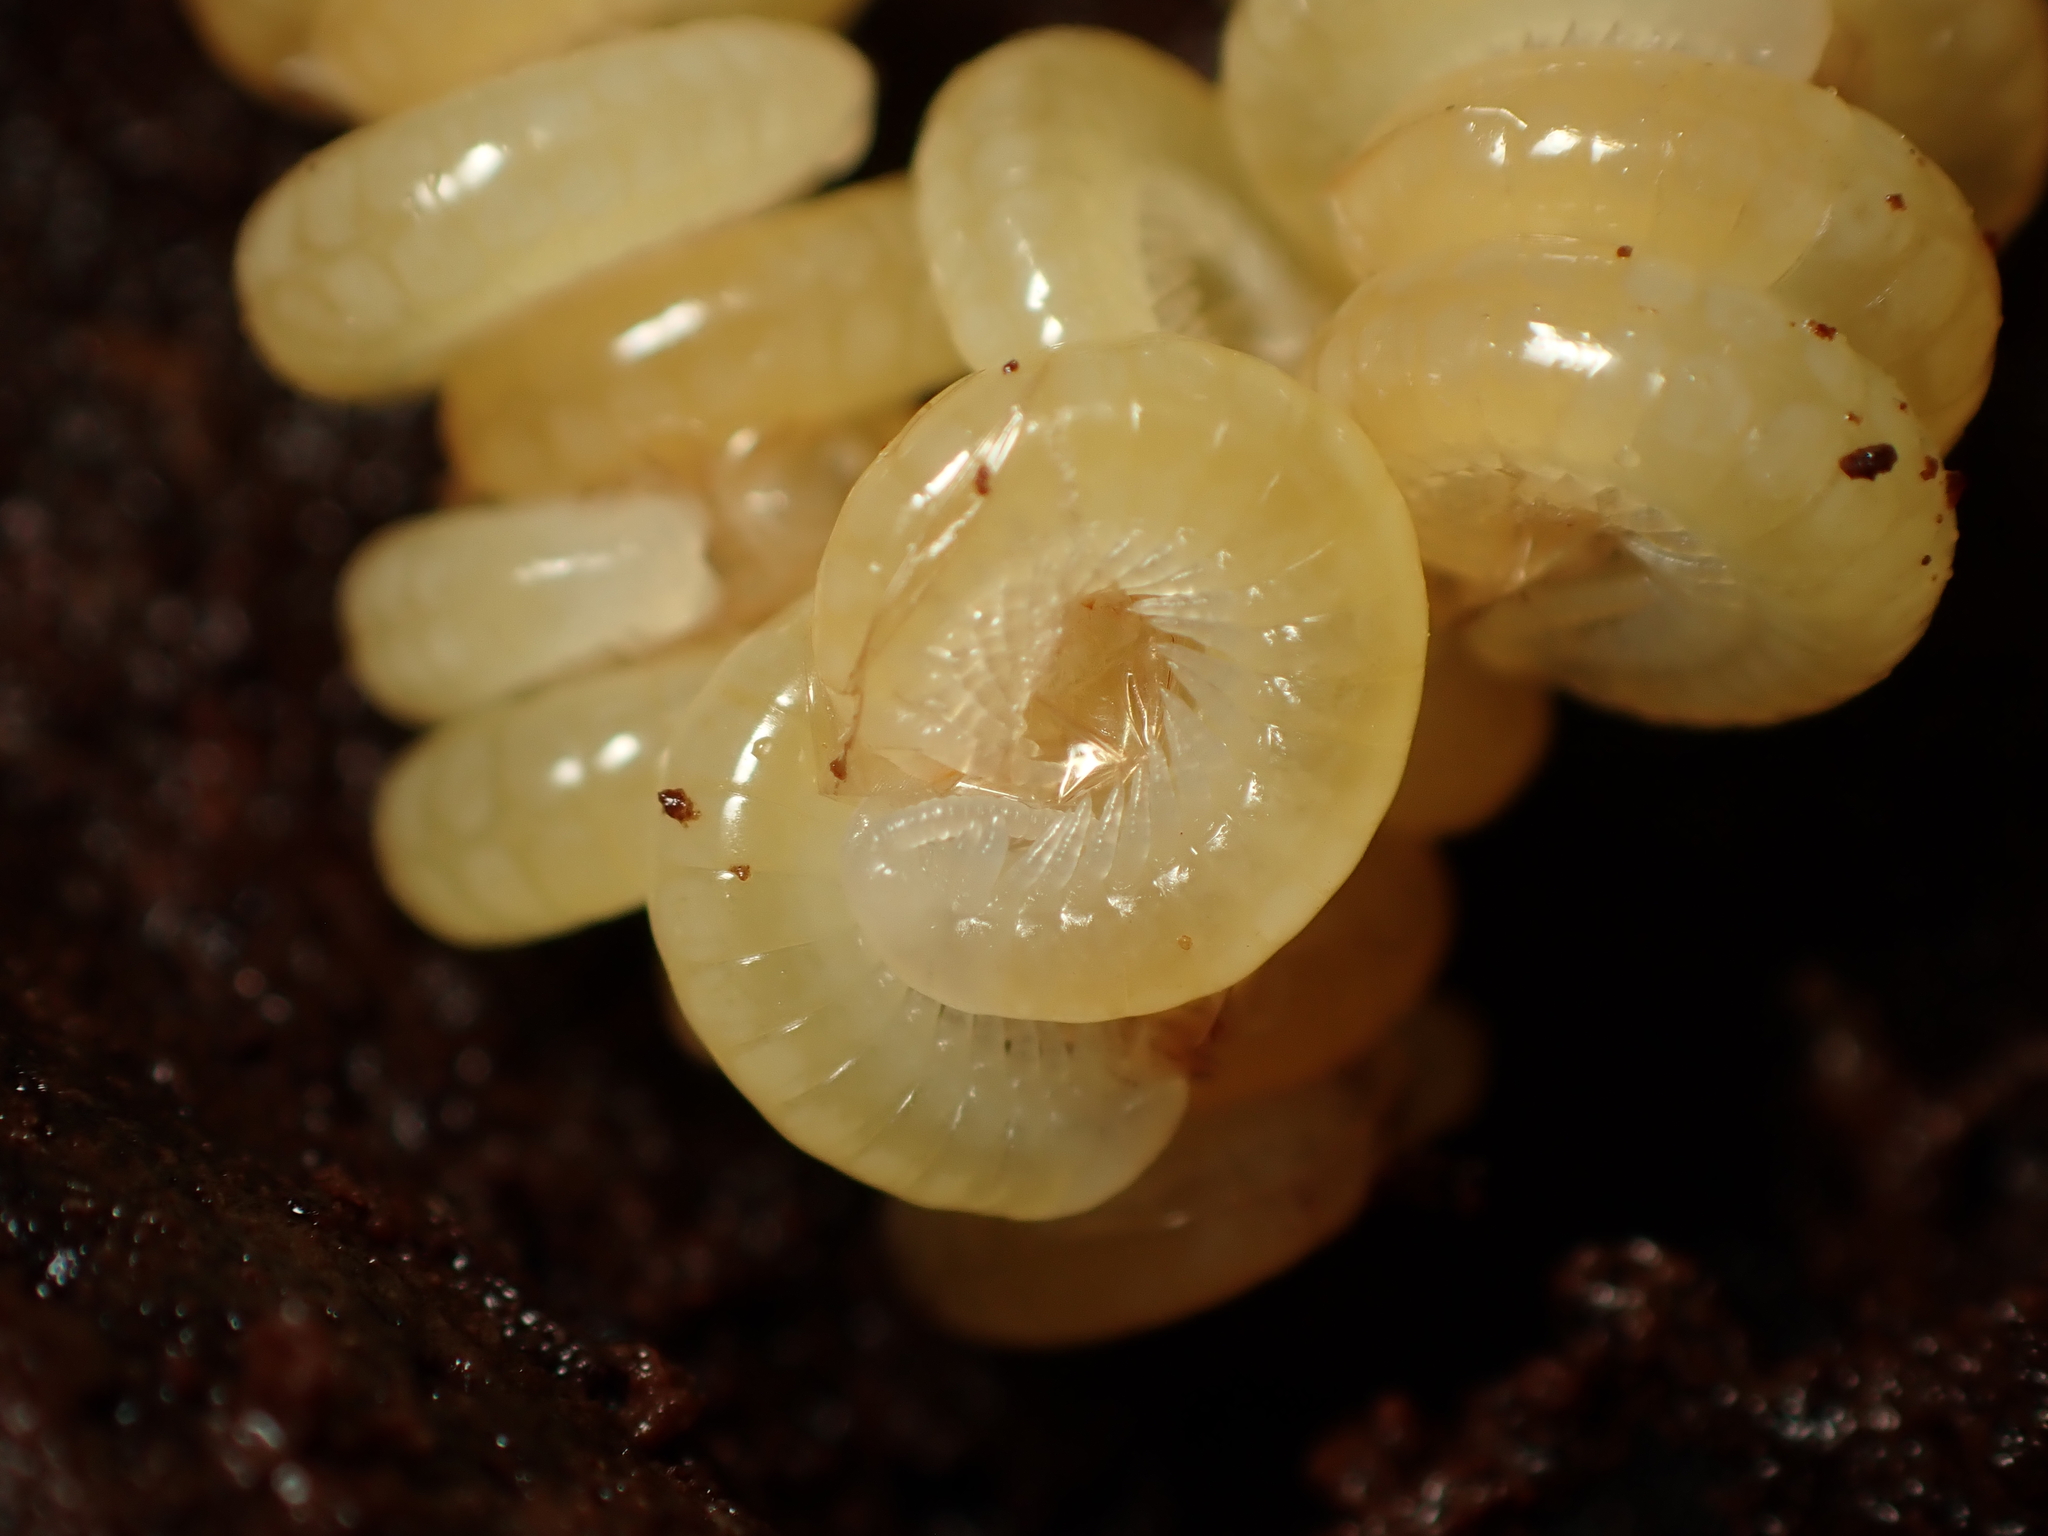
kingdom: Animalia
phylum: Arthropoda
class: Chilopoda
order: Scolopendromorpha
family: Scolopendridae
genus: Cormocephalus
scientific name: Cormocephalus rubriceps
